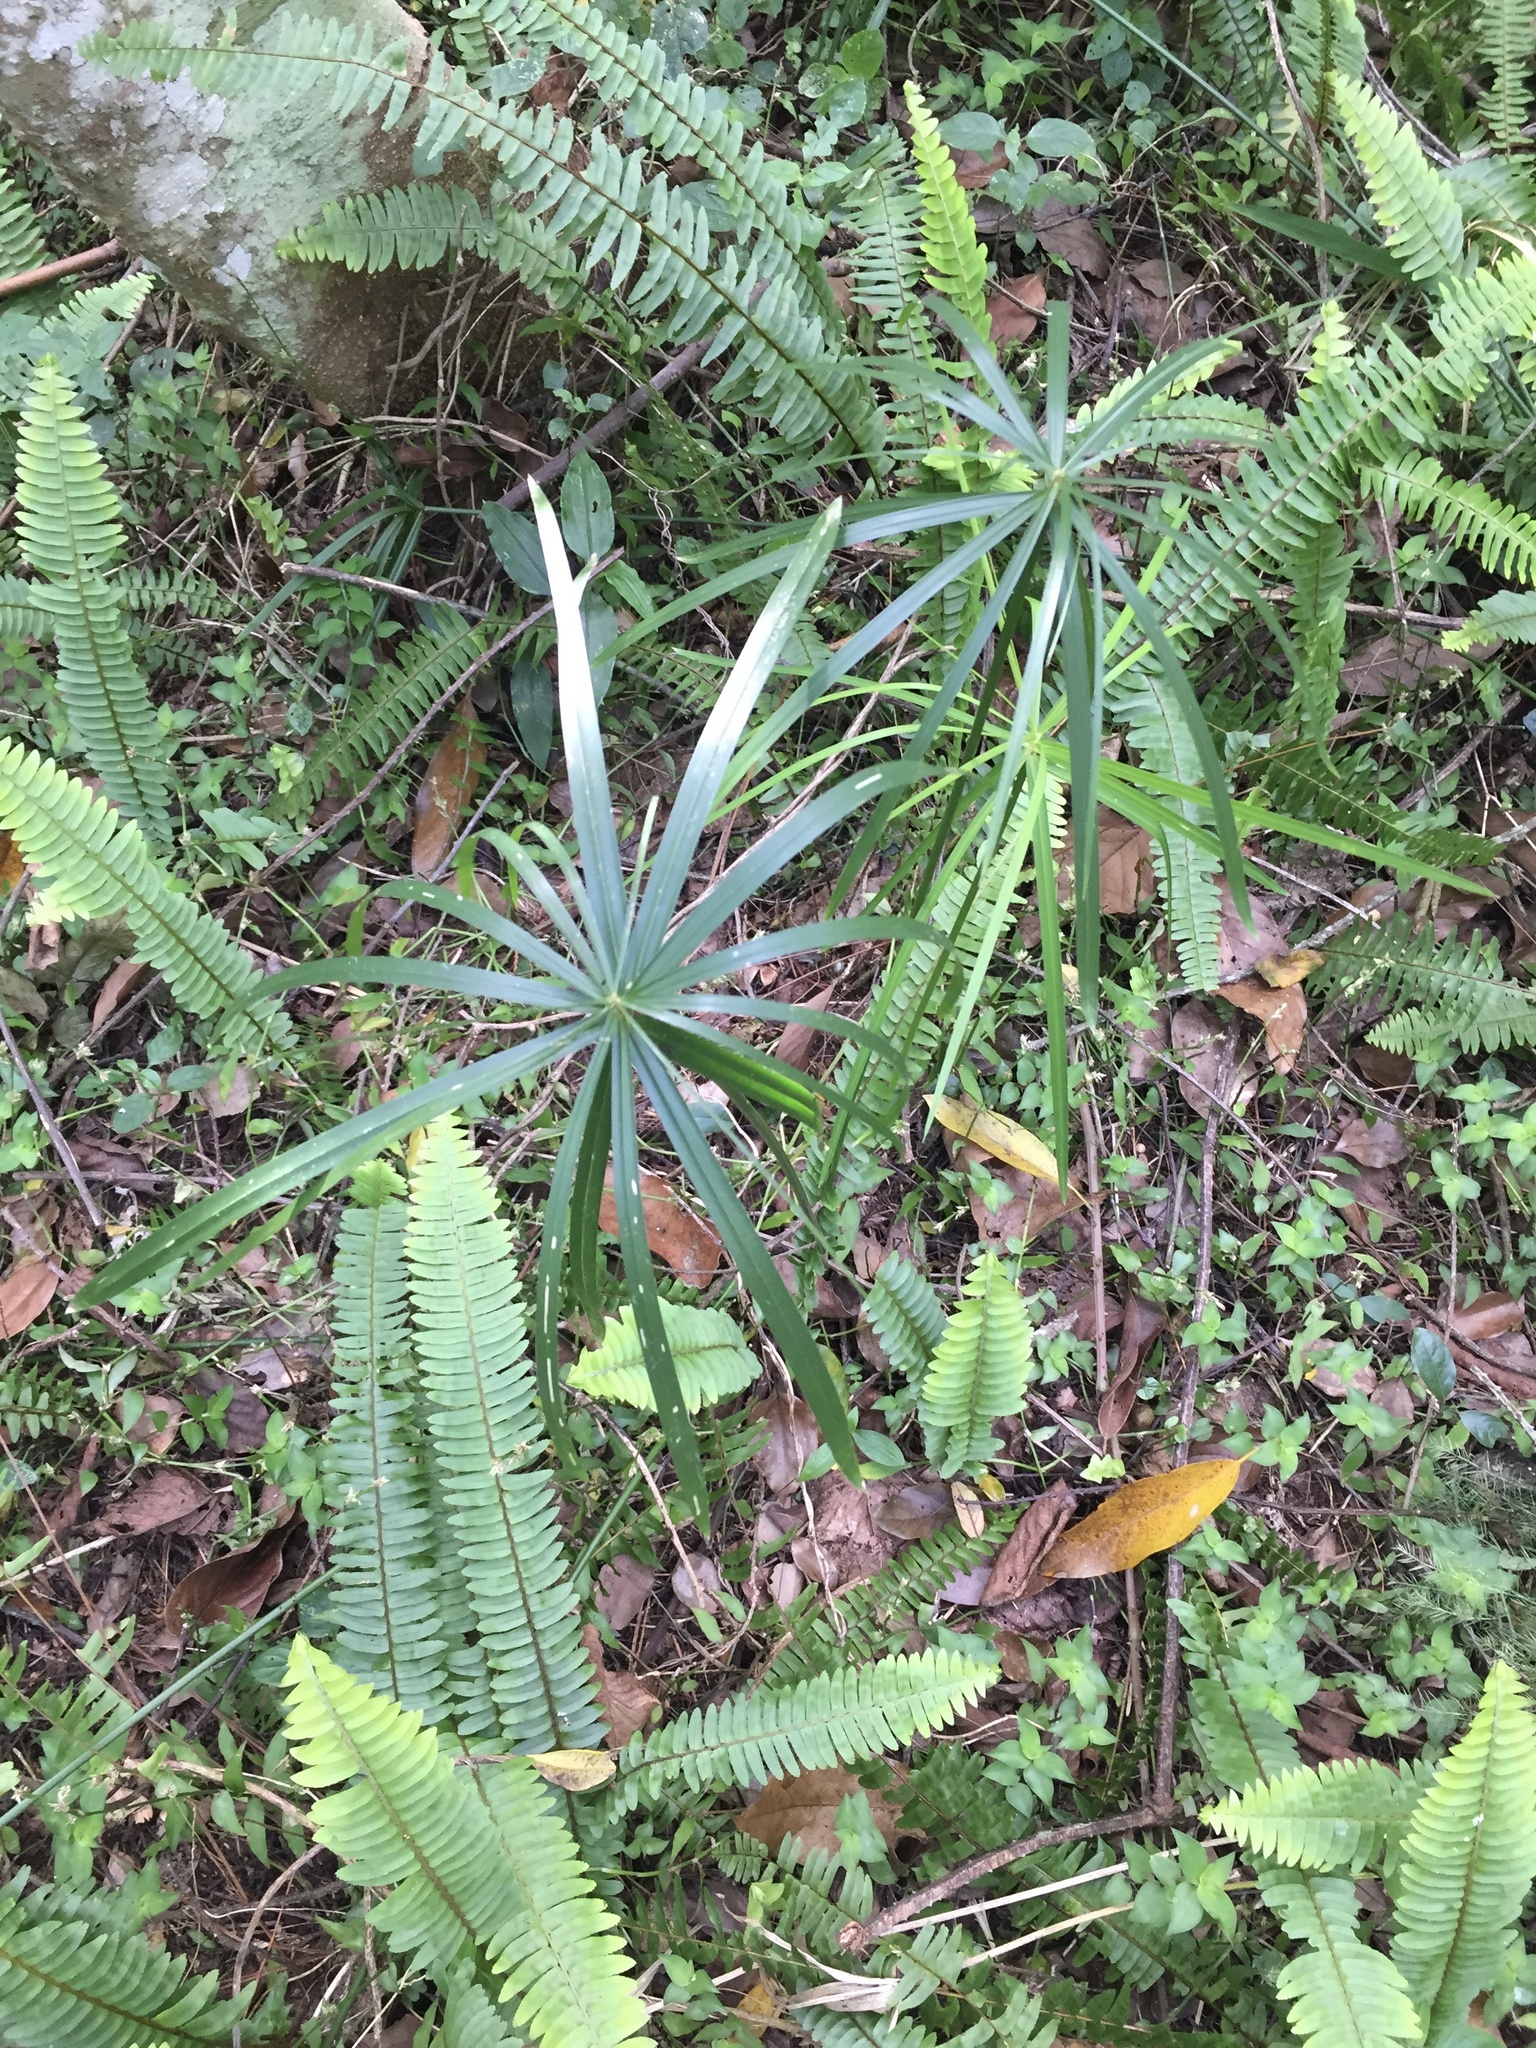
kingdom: Plantae
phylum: Tracheophyta
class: Liliopsida
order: Poales
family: Cyperaceae
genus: Cyperus
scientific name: Cyperus alternifolius
